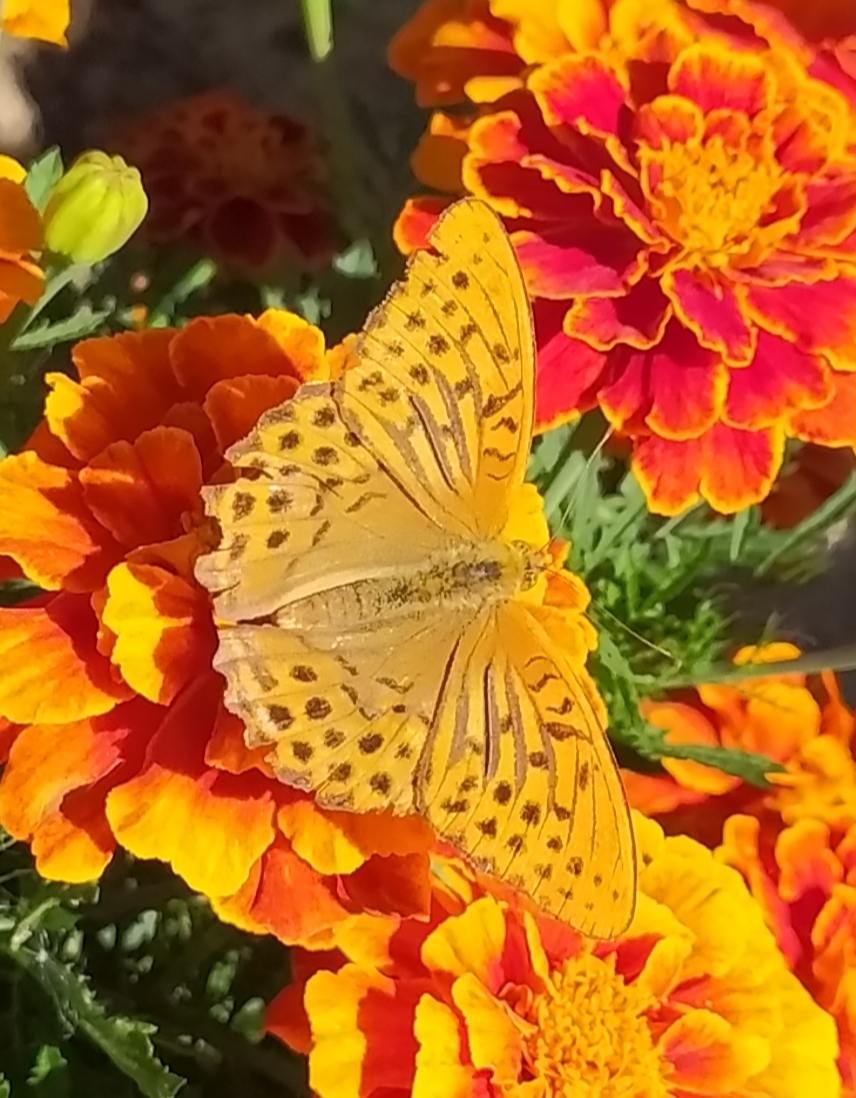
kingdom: Animalia
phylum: Arthropoda
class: Insecta
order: Lepidoptera
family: Nymphalidae
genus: Argynnis
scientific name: Argynnis paphia
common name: Silver-washed fritillary
